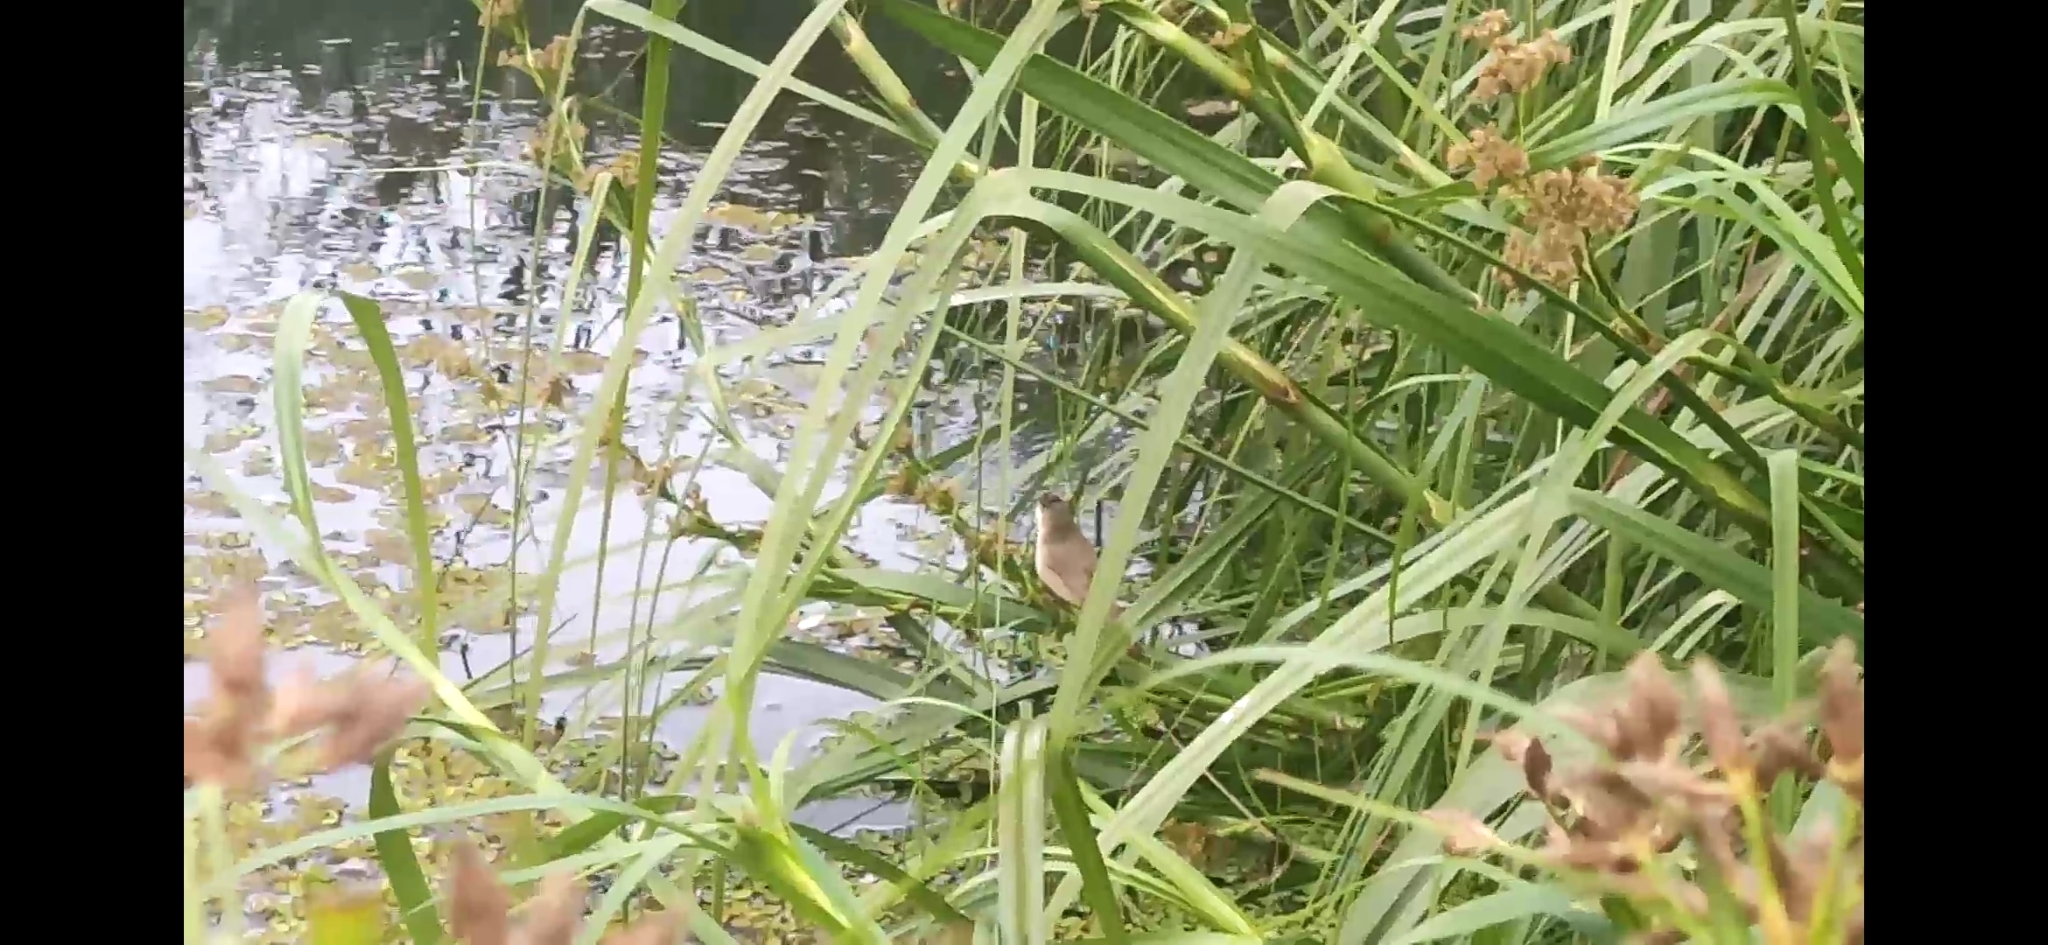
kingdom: Animalia
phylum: Chordata
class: Aves
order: Passeriformes
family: Acrocephalidae
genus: Acrocephalus
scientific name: Acrocephalus australis
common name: Australian reed warbler
